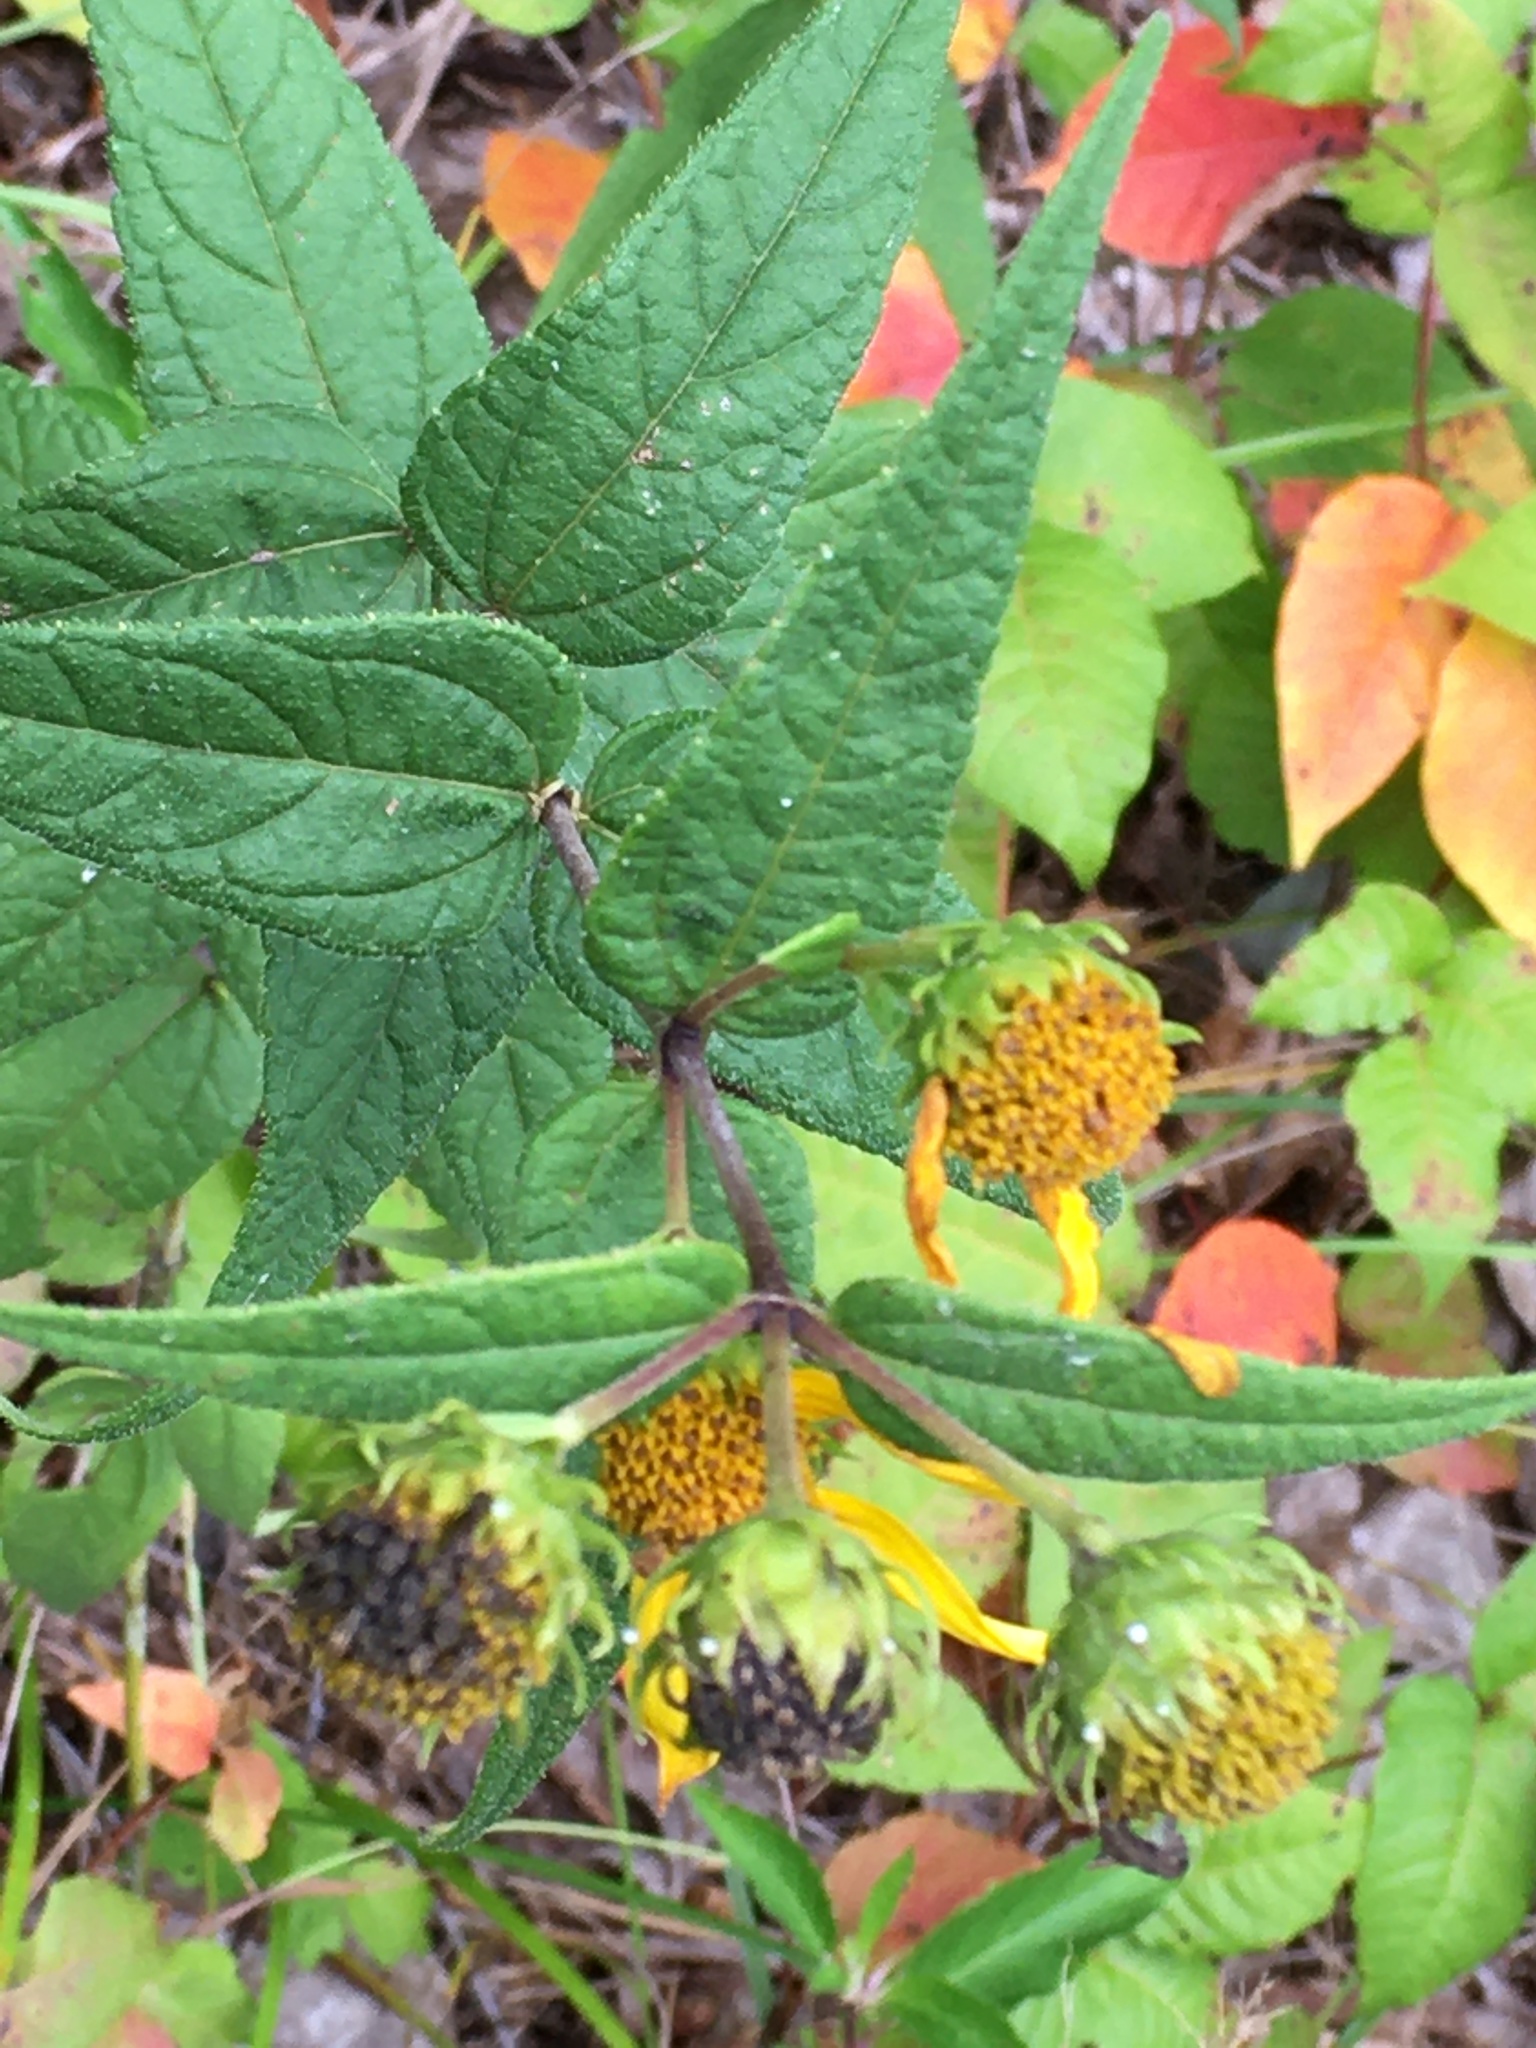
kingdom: Plantae
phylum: Tracheophyta
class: Magnoliopsida
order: Asterales
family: Asteraceae
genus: Helianthus
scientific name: Helianthus divaricatus
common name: Divergent sunflower
